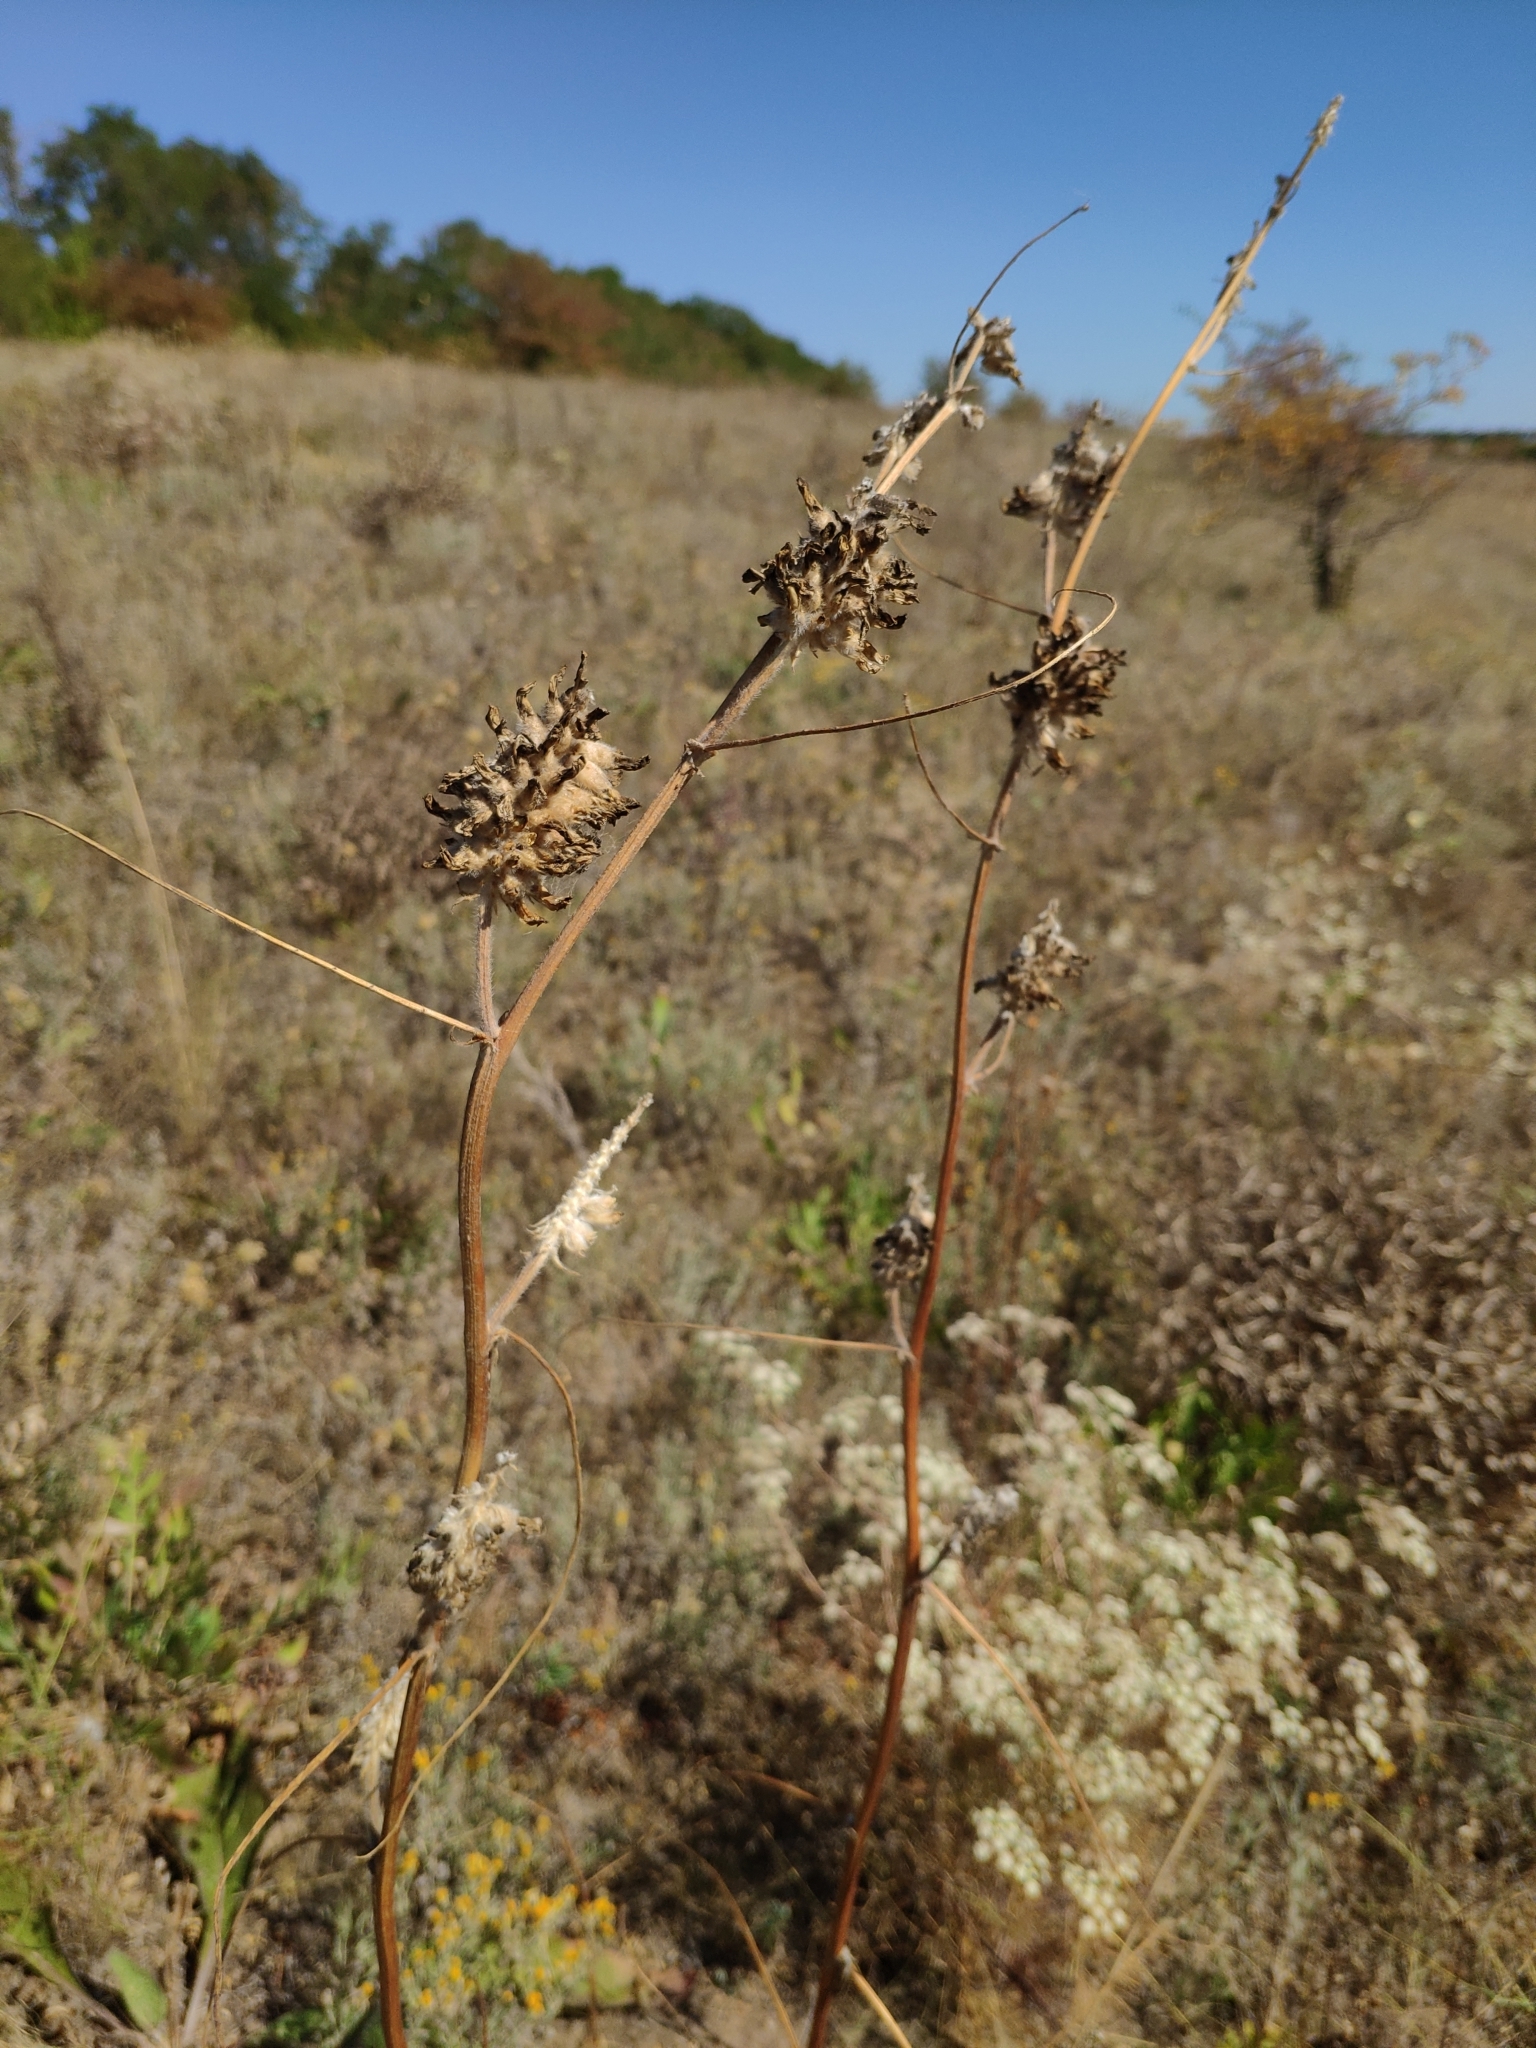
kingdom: Plantae
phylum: Tracheophyta
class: Magnoliopsida
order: Fabales
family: Fabaceae
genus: Astragalus
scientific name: Astragalus ponticus
